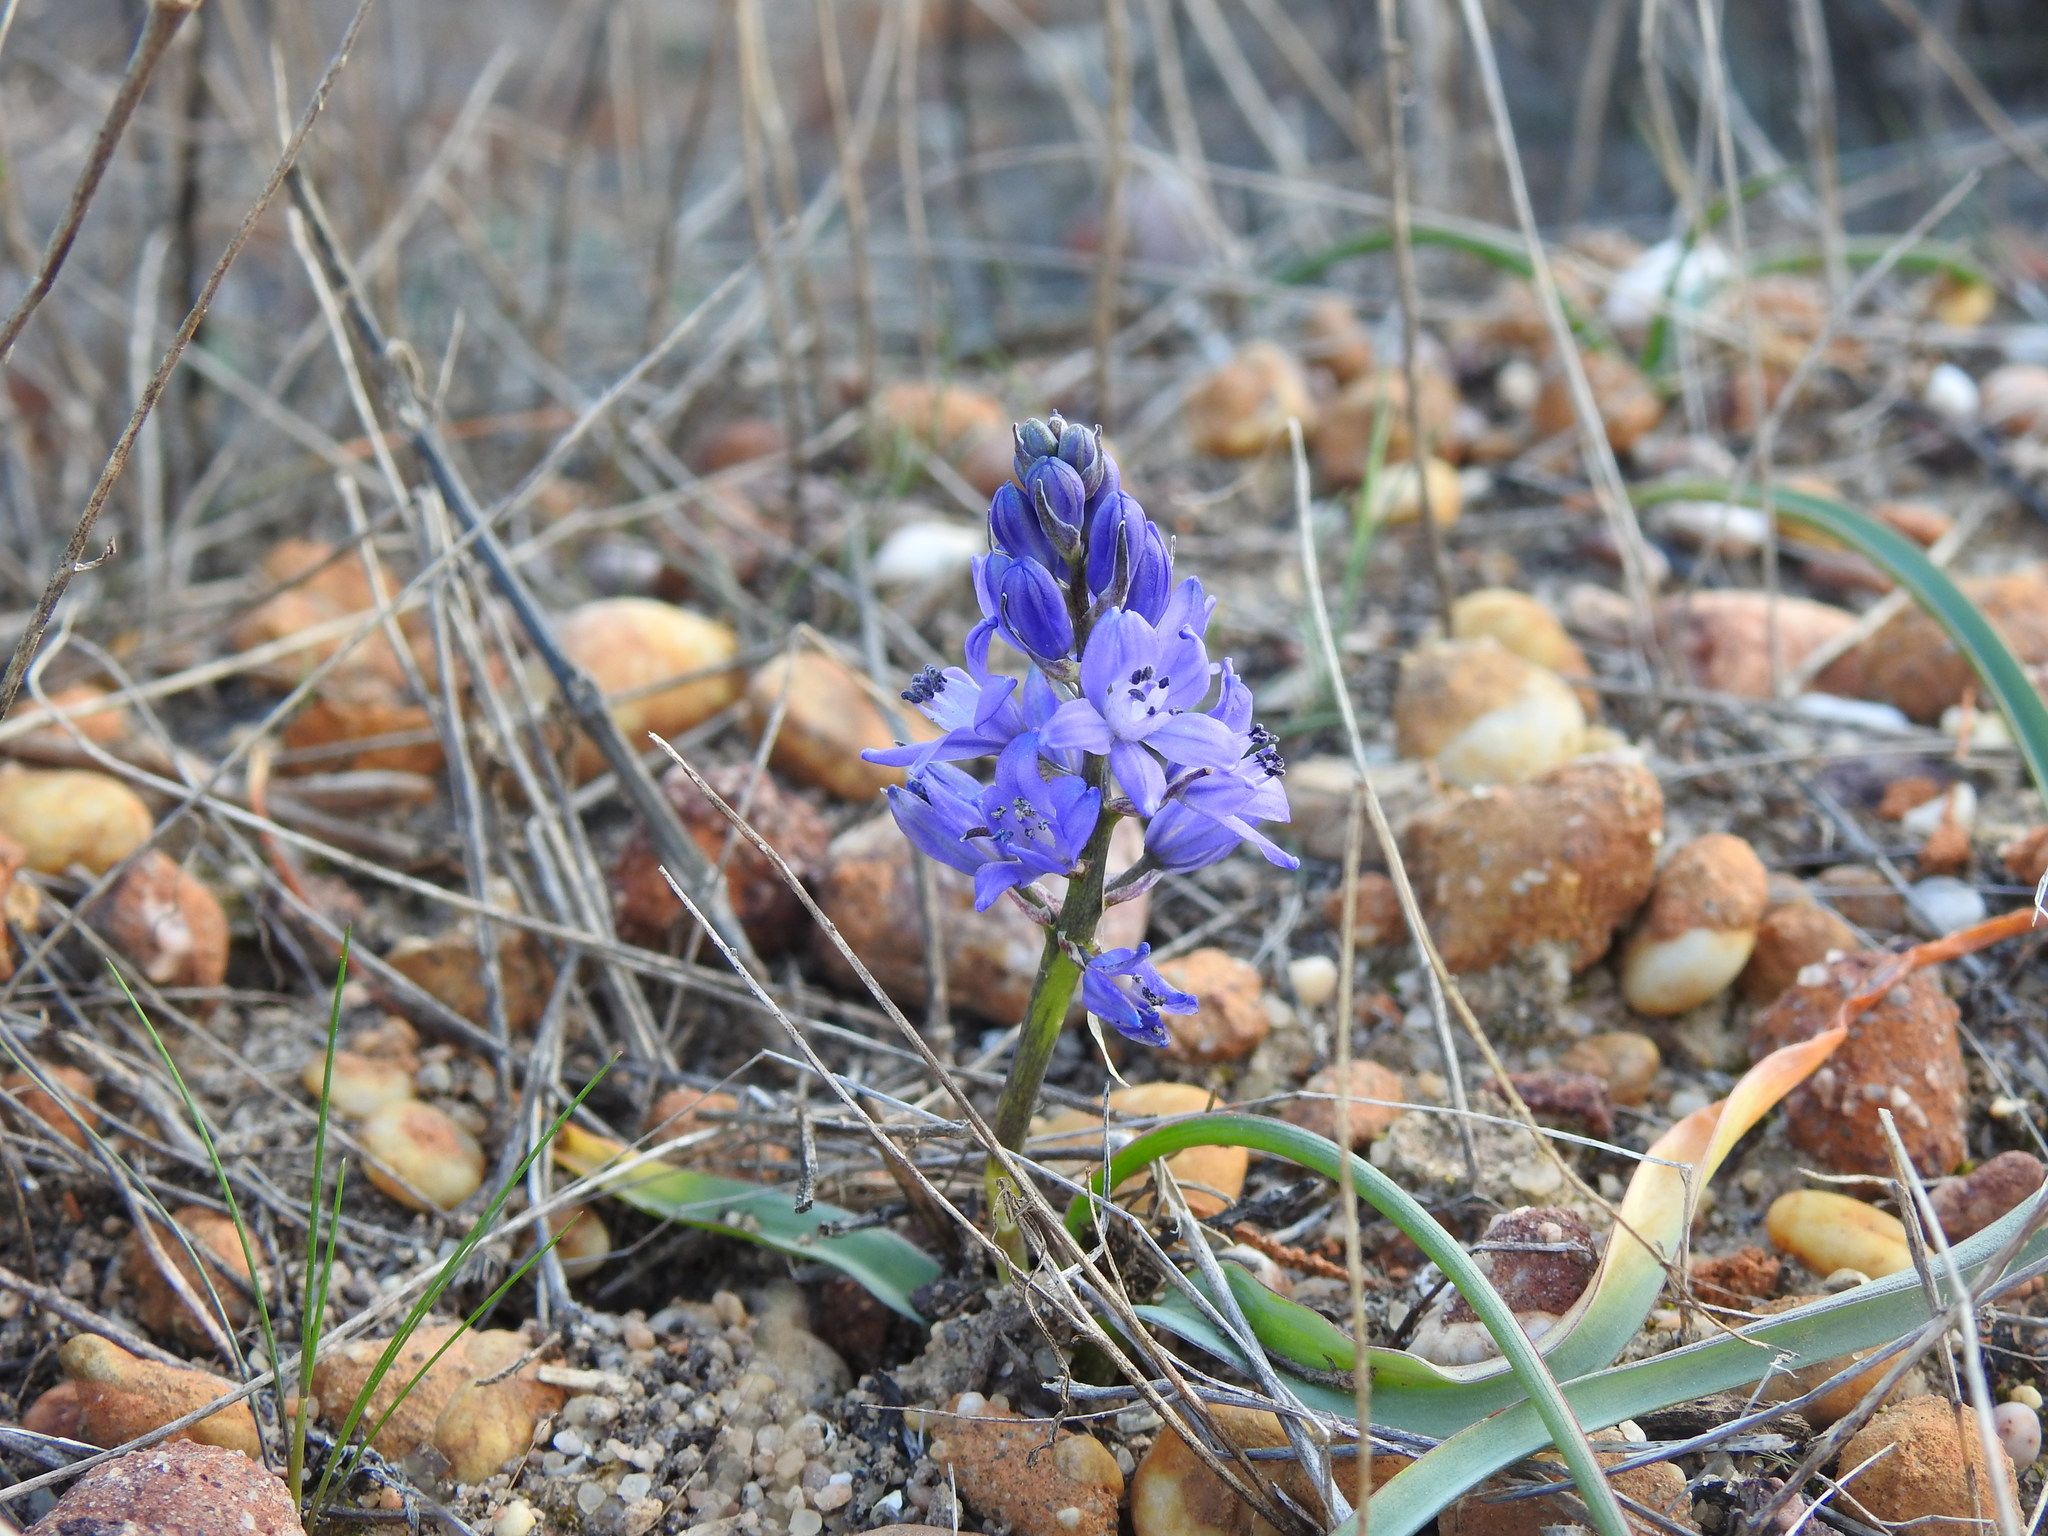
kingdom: Plantae
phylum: Tracheophyta
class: Liliopsida
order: Asparagales
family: Asparagaceae
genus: Scilla
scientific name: Scilla verna
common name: Spring squill
